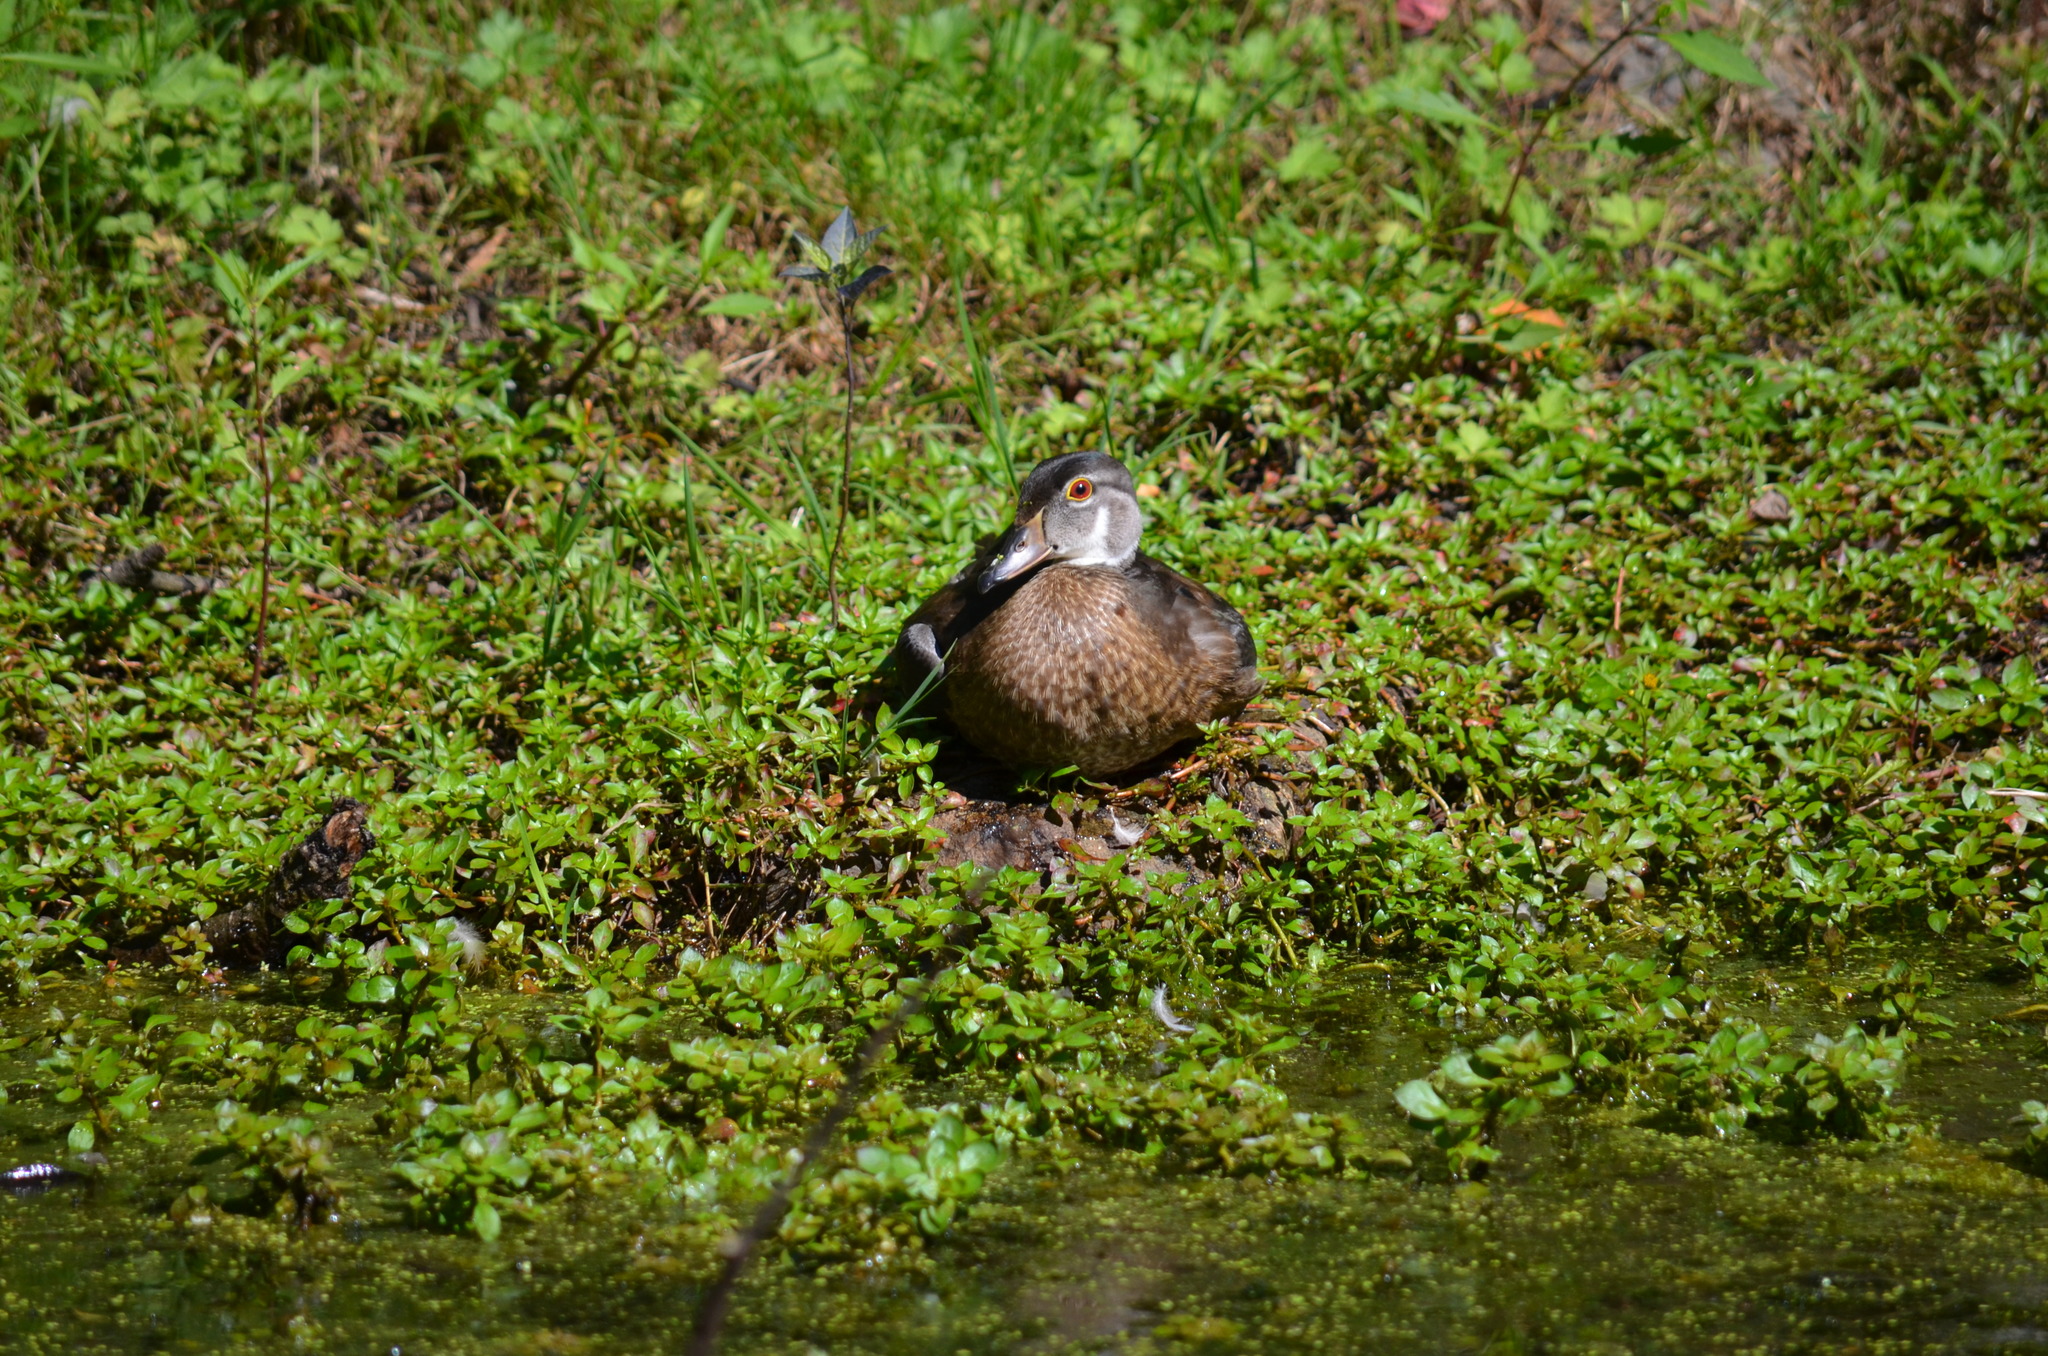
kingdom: Animalia
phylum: Chordata
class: Aves
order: Anseriformes
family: Anatidae
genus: Aix
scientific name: Aix sponsa
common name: Wood duck
